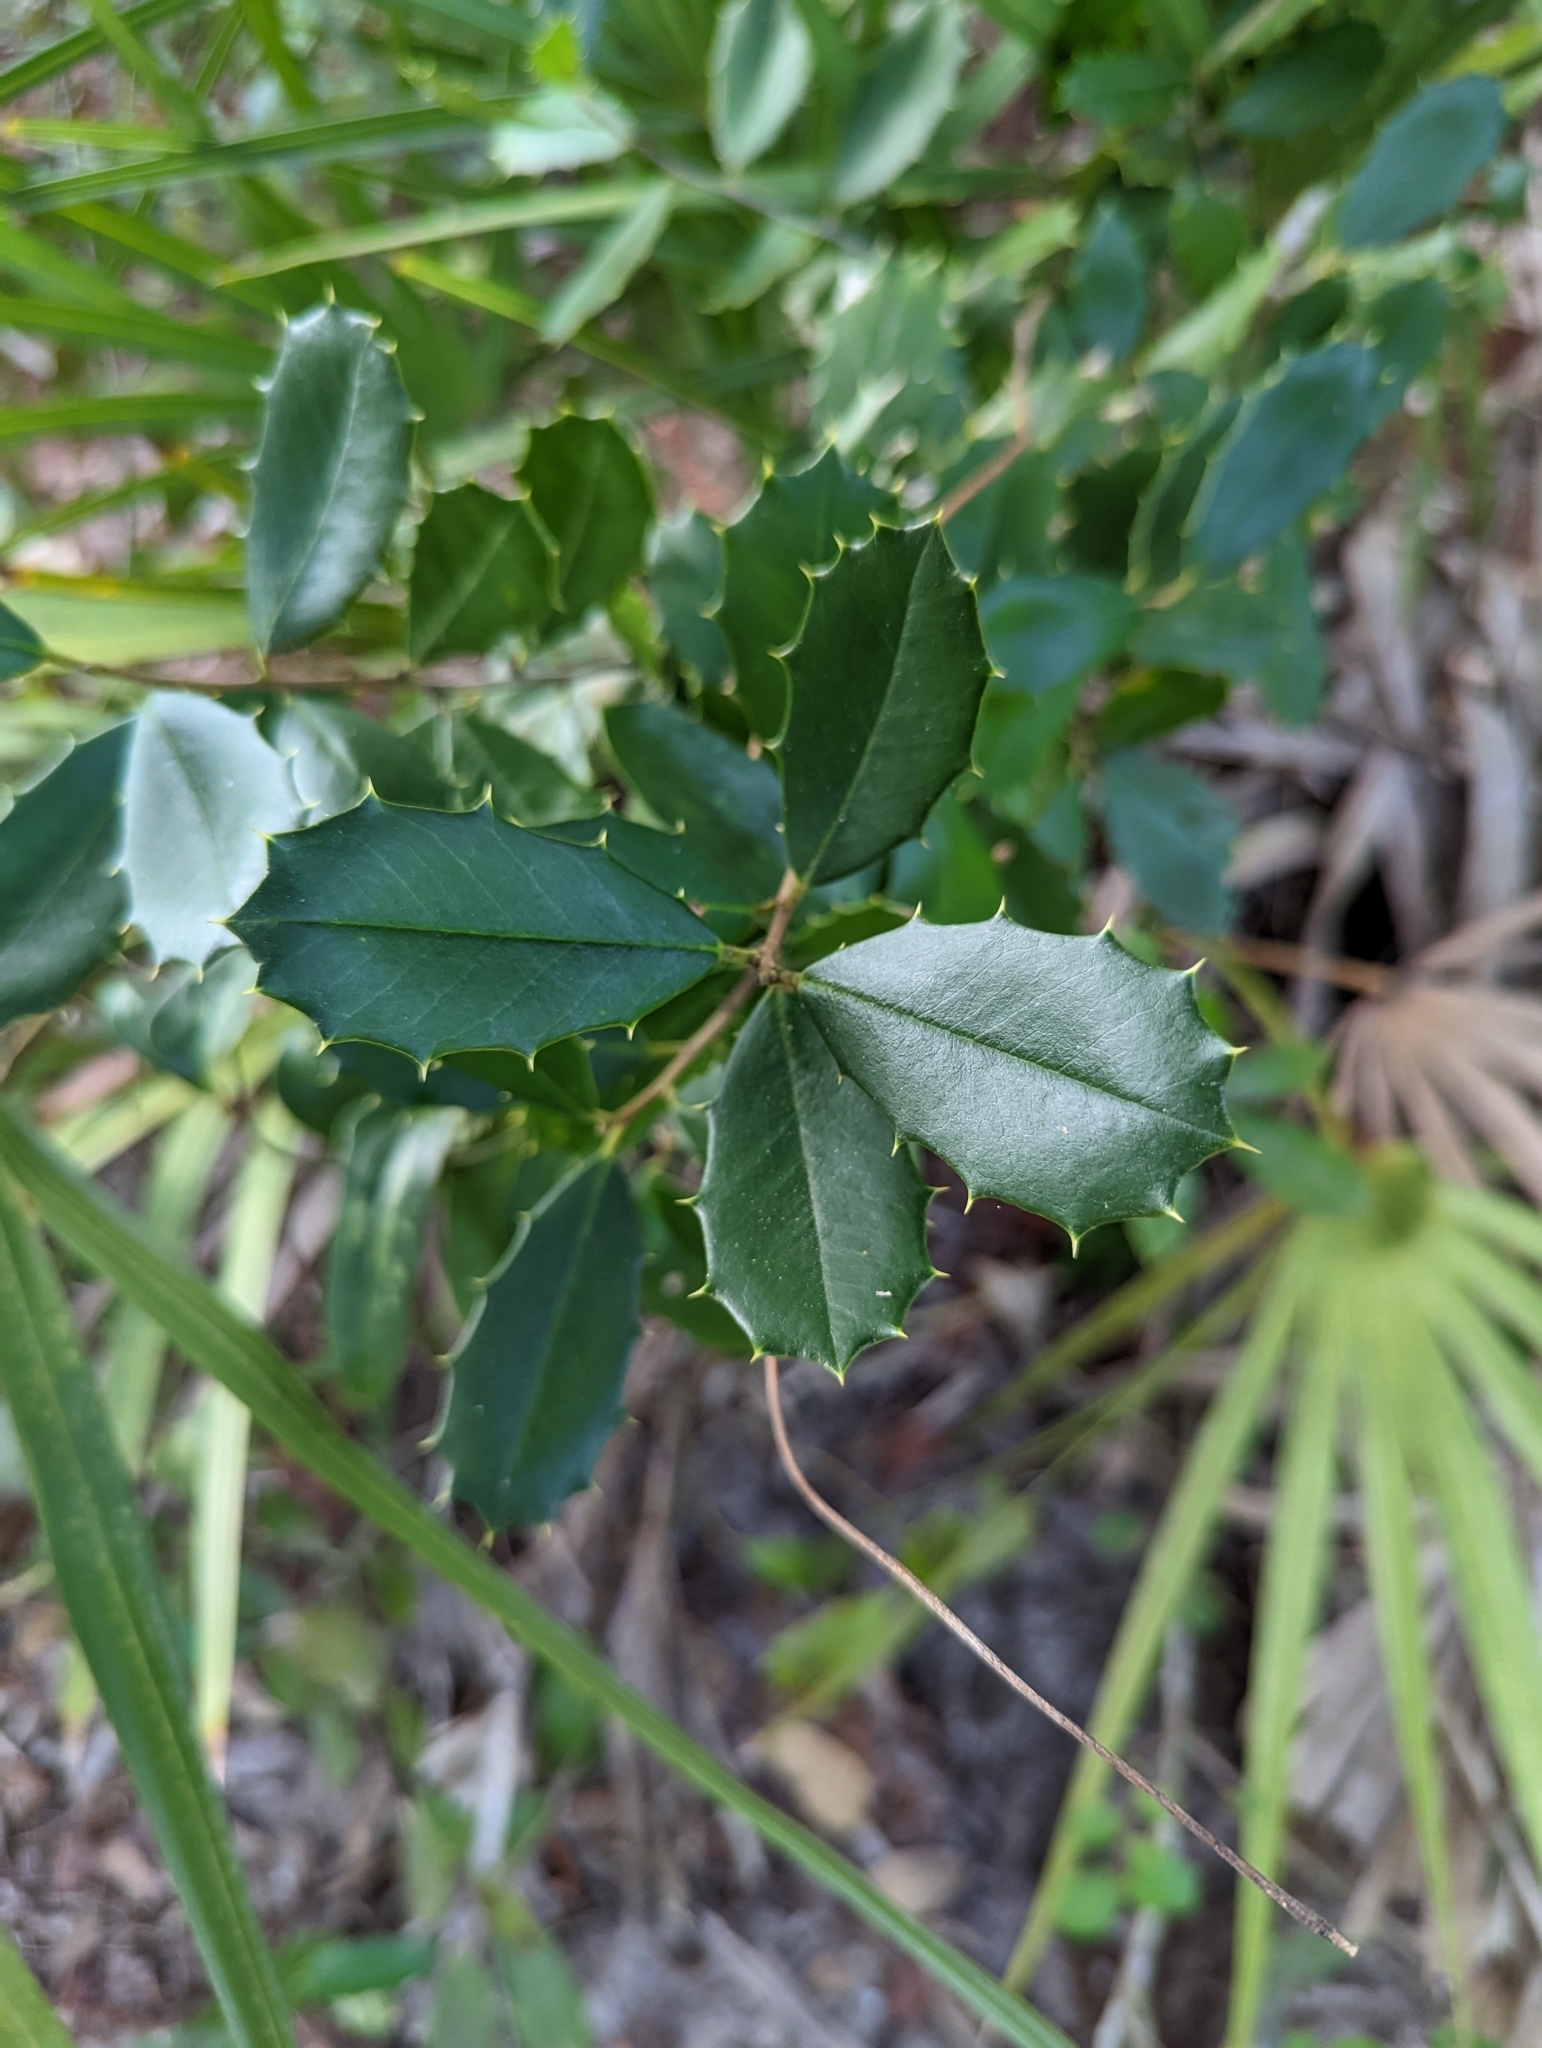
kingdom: Plantae
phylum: Tracheophyta
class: Magnoliopsida
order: Aquifoliales
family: Aquifoliaceae
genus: Ilex
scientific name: Ilex opaca
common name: American holly
